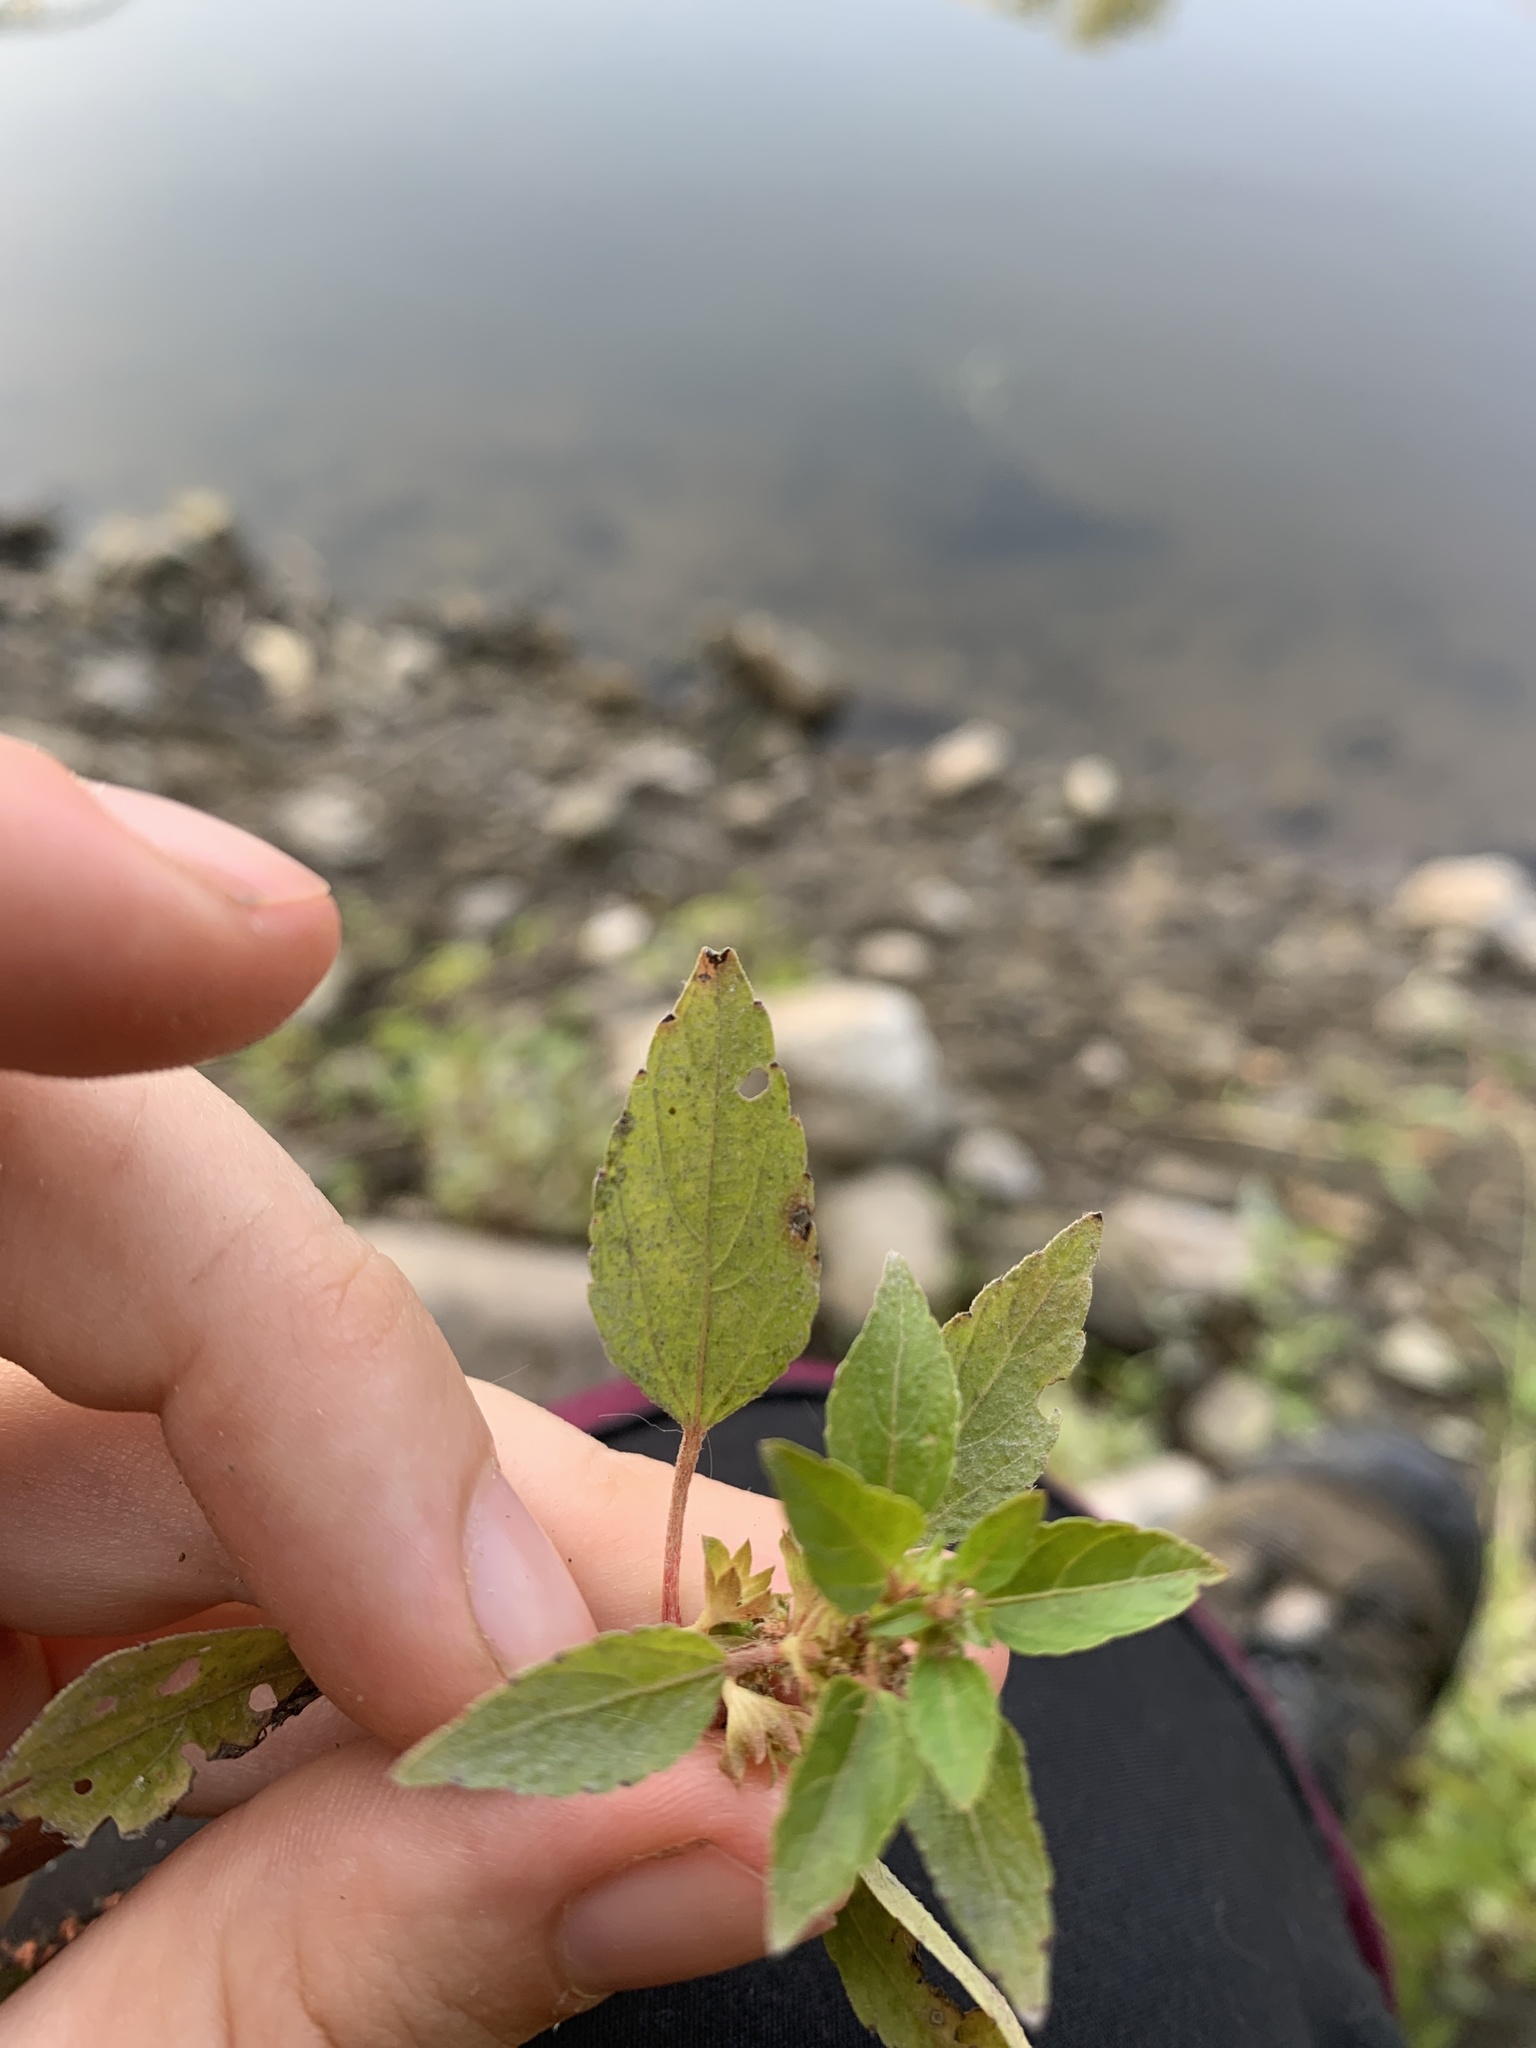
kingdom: Plantae
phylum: Tracheophyta
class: Magnoliopsida
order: Malpighiales
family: Euphorbiaceae
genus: Acalypha
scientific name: Acalypha rhomboidea
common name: Rhombic copperleaf
